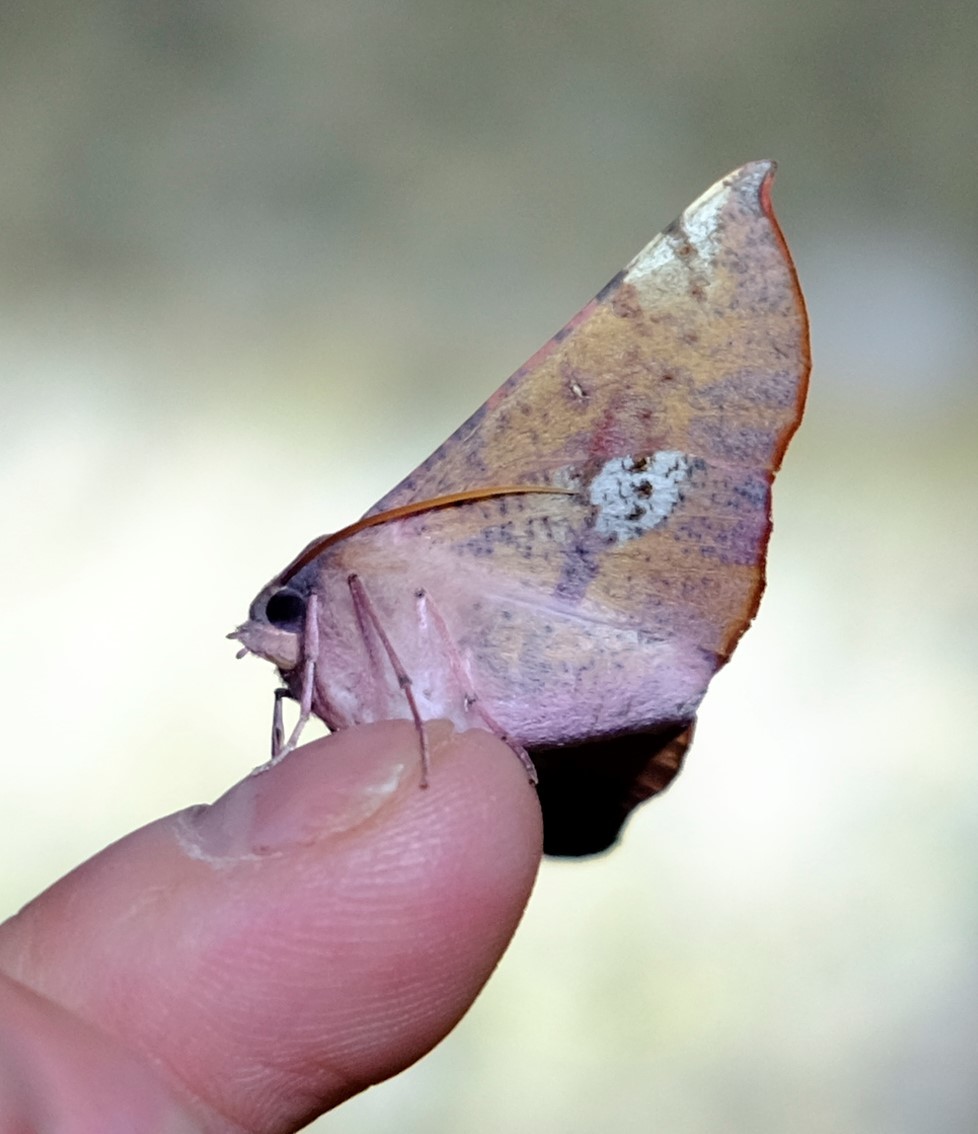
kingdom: Animalia
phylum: Arthropoda
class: Insecta
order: Lepidoptera
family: Geometridae
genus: Oenochroma
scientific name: Oenochroma vinaria
